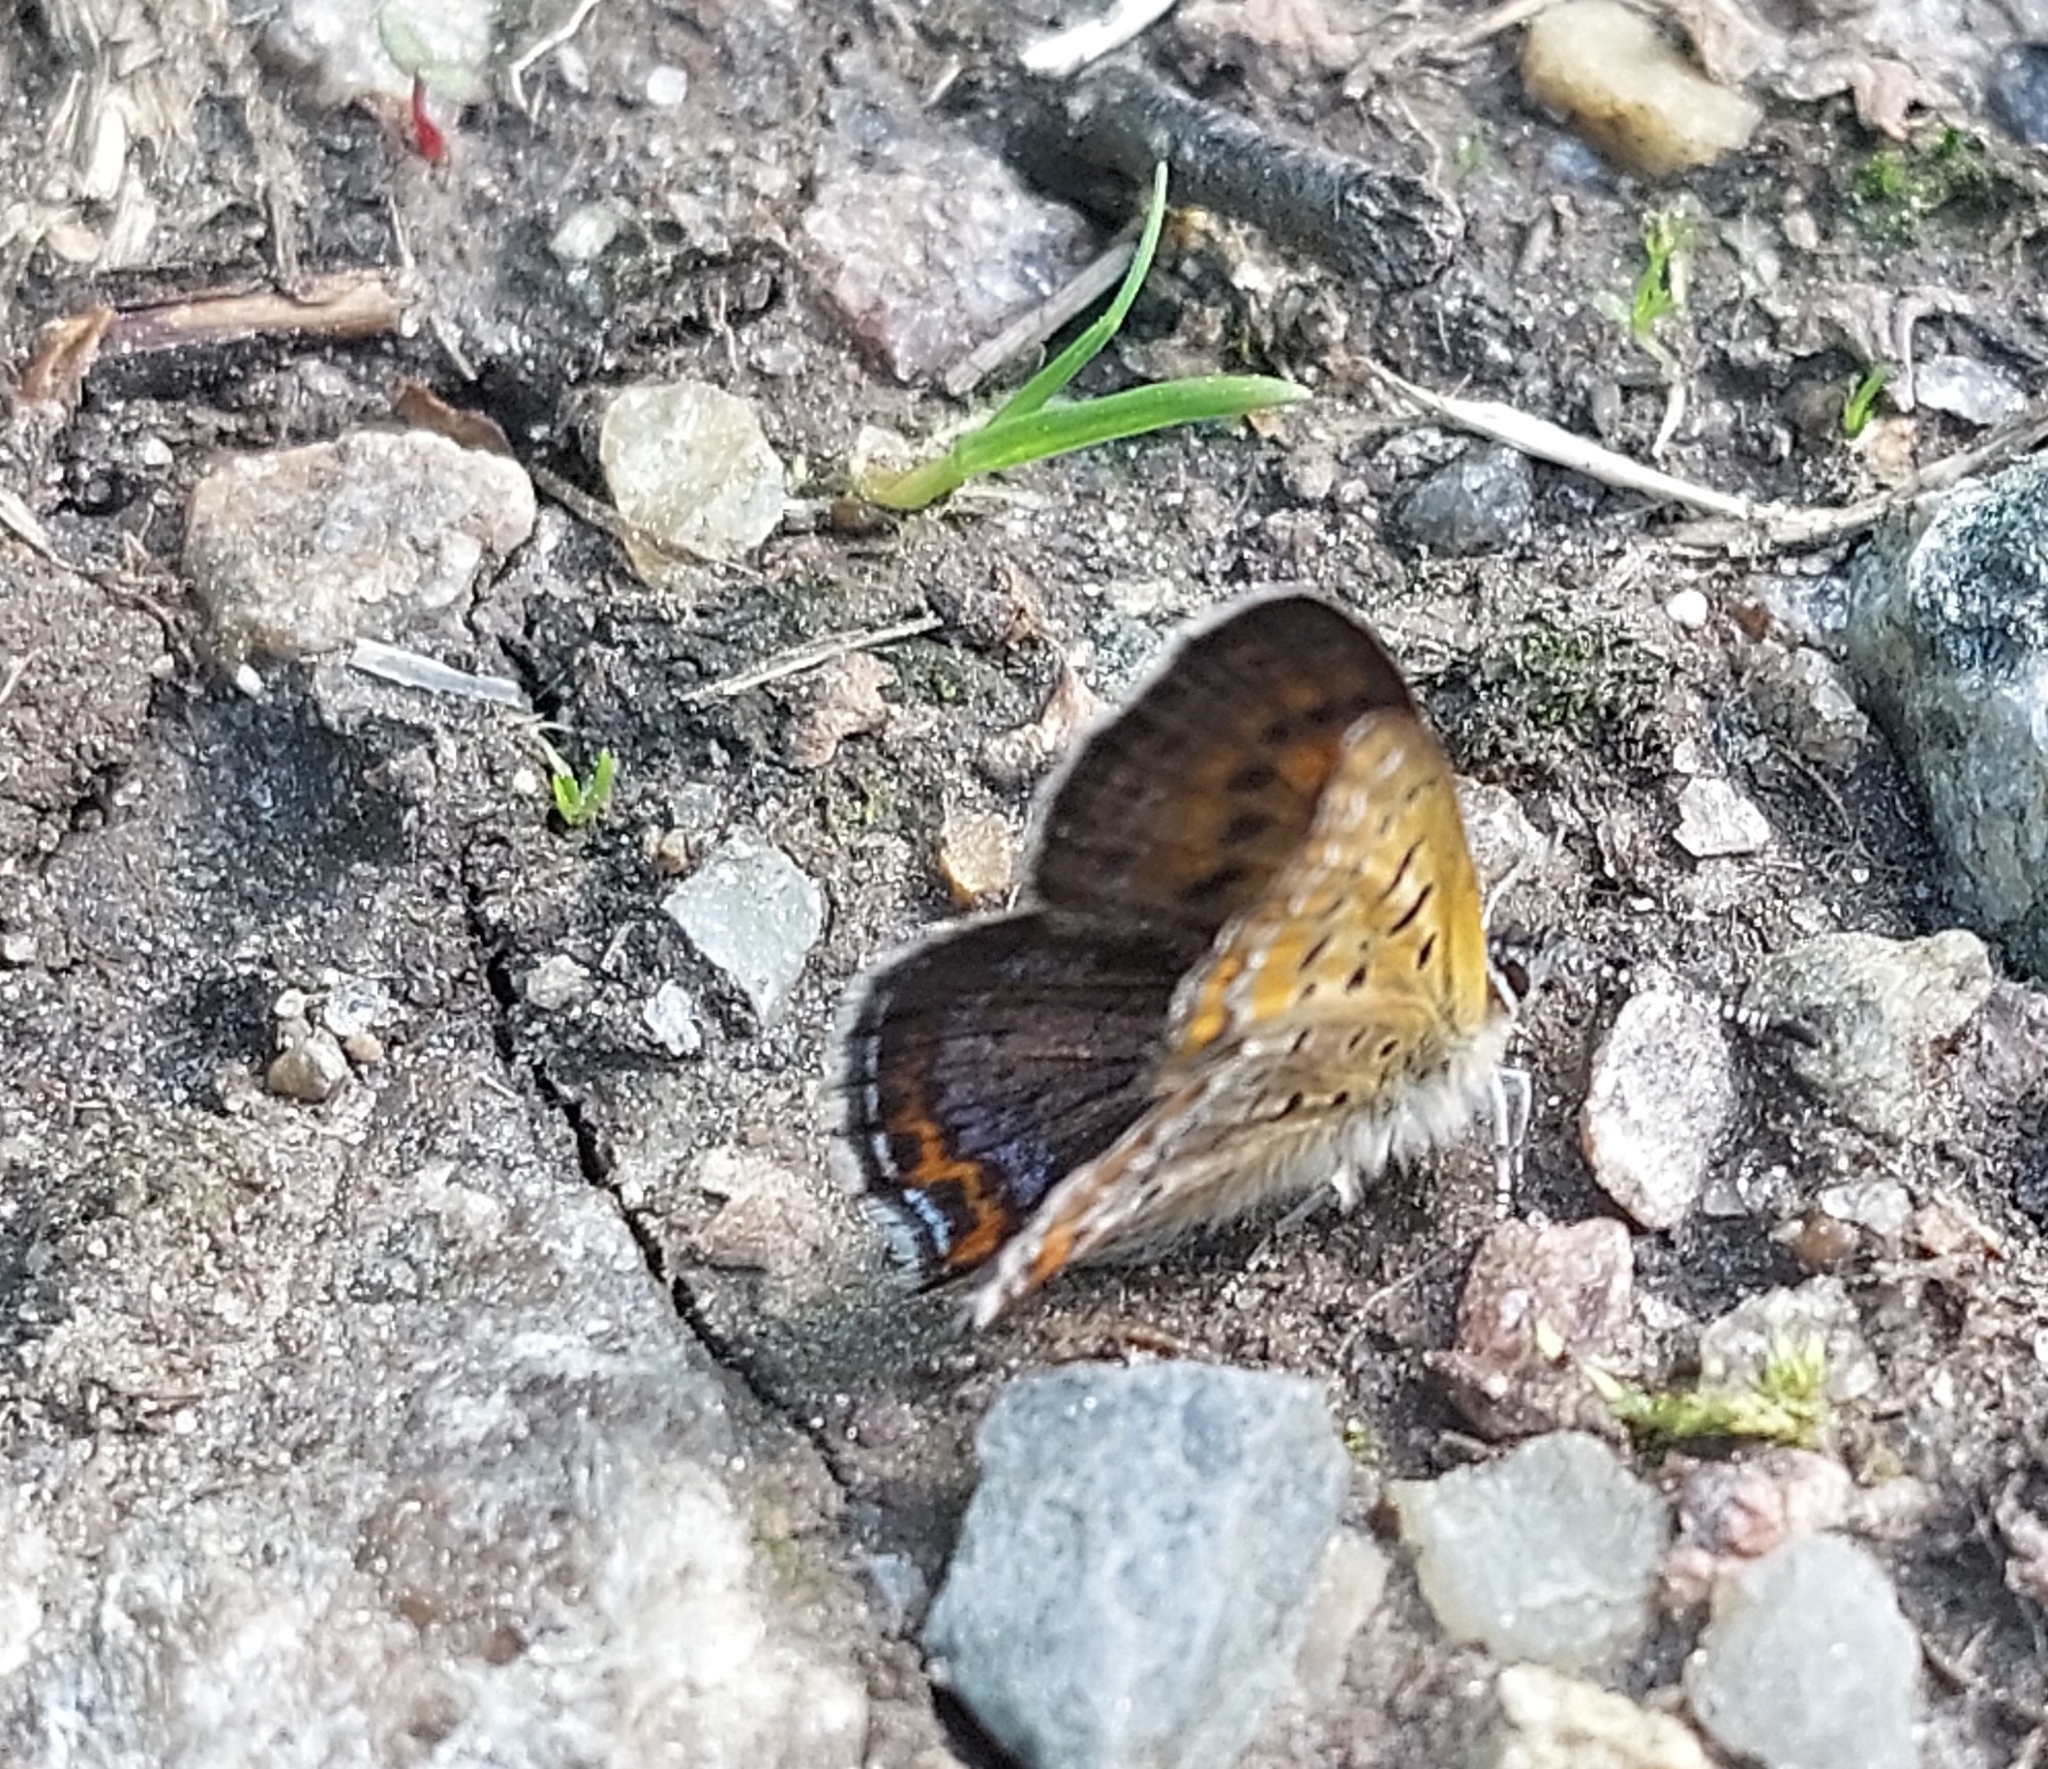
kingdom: Animalia
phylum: Arthropoda
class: Insecta
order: Lepidoptera
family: Lycaenidae
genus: Helleia
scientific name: Helleia helle
